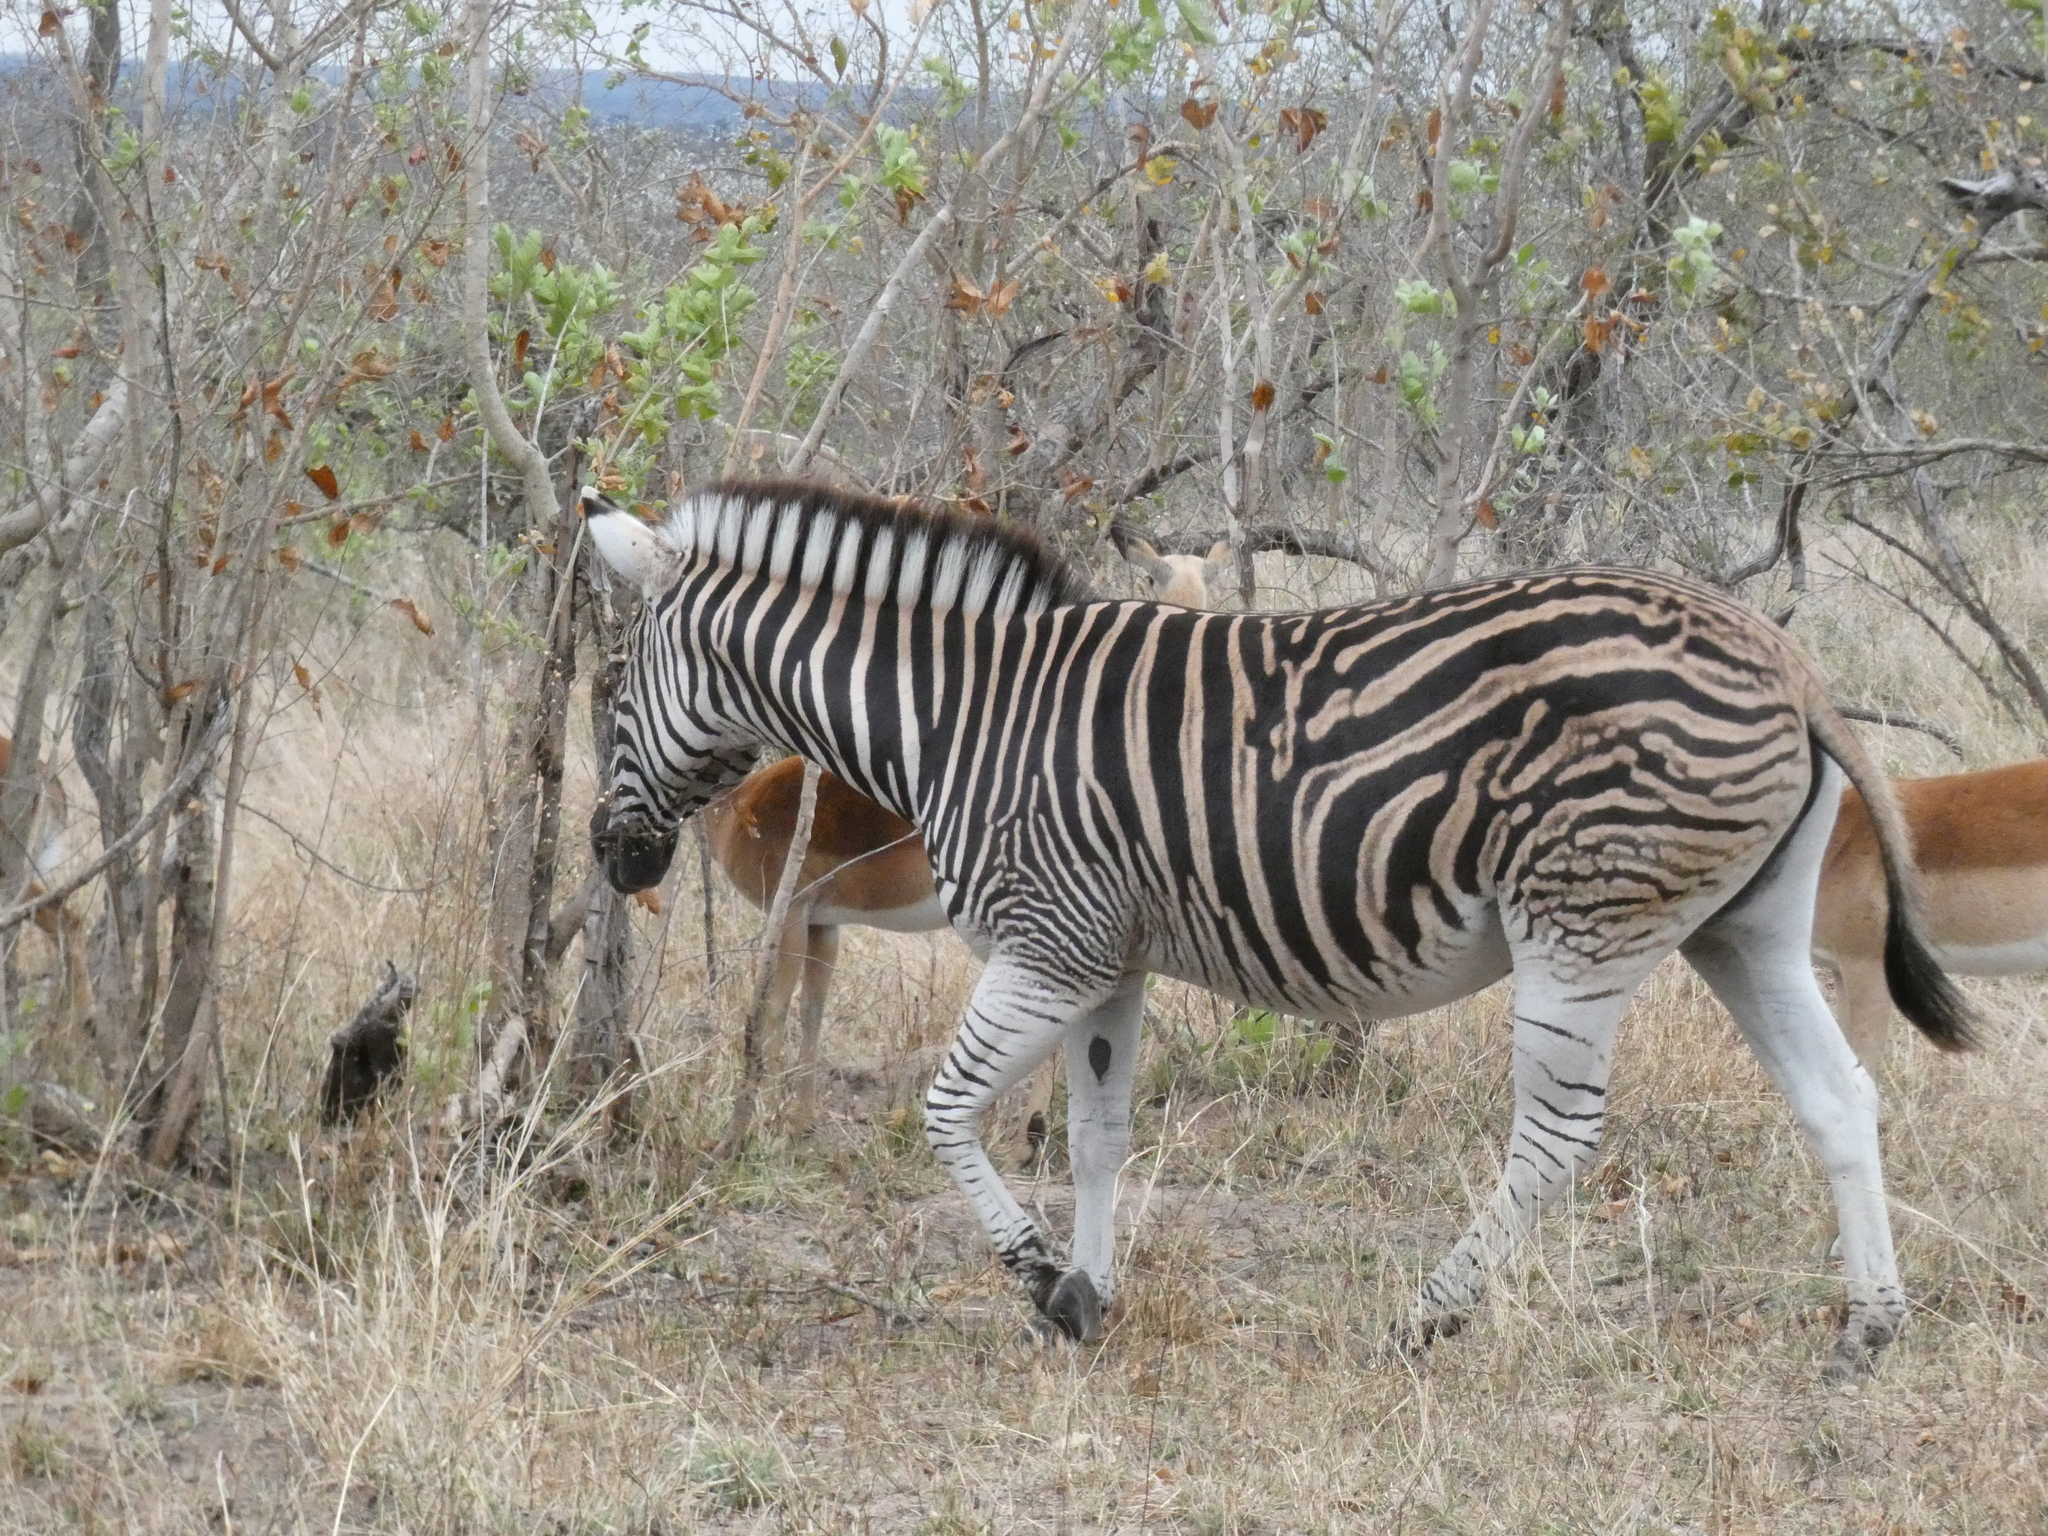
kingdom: Animalia
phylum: Chordata
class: Mammalia
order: Perissodactyla
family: Equidae
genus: Equus
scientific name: Equus quagga
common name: Plains zebra
